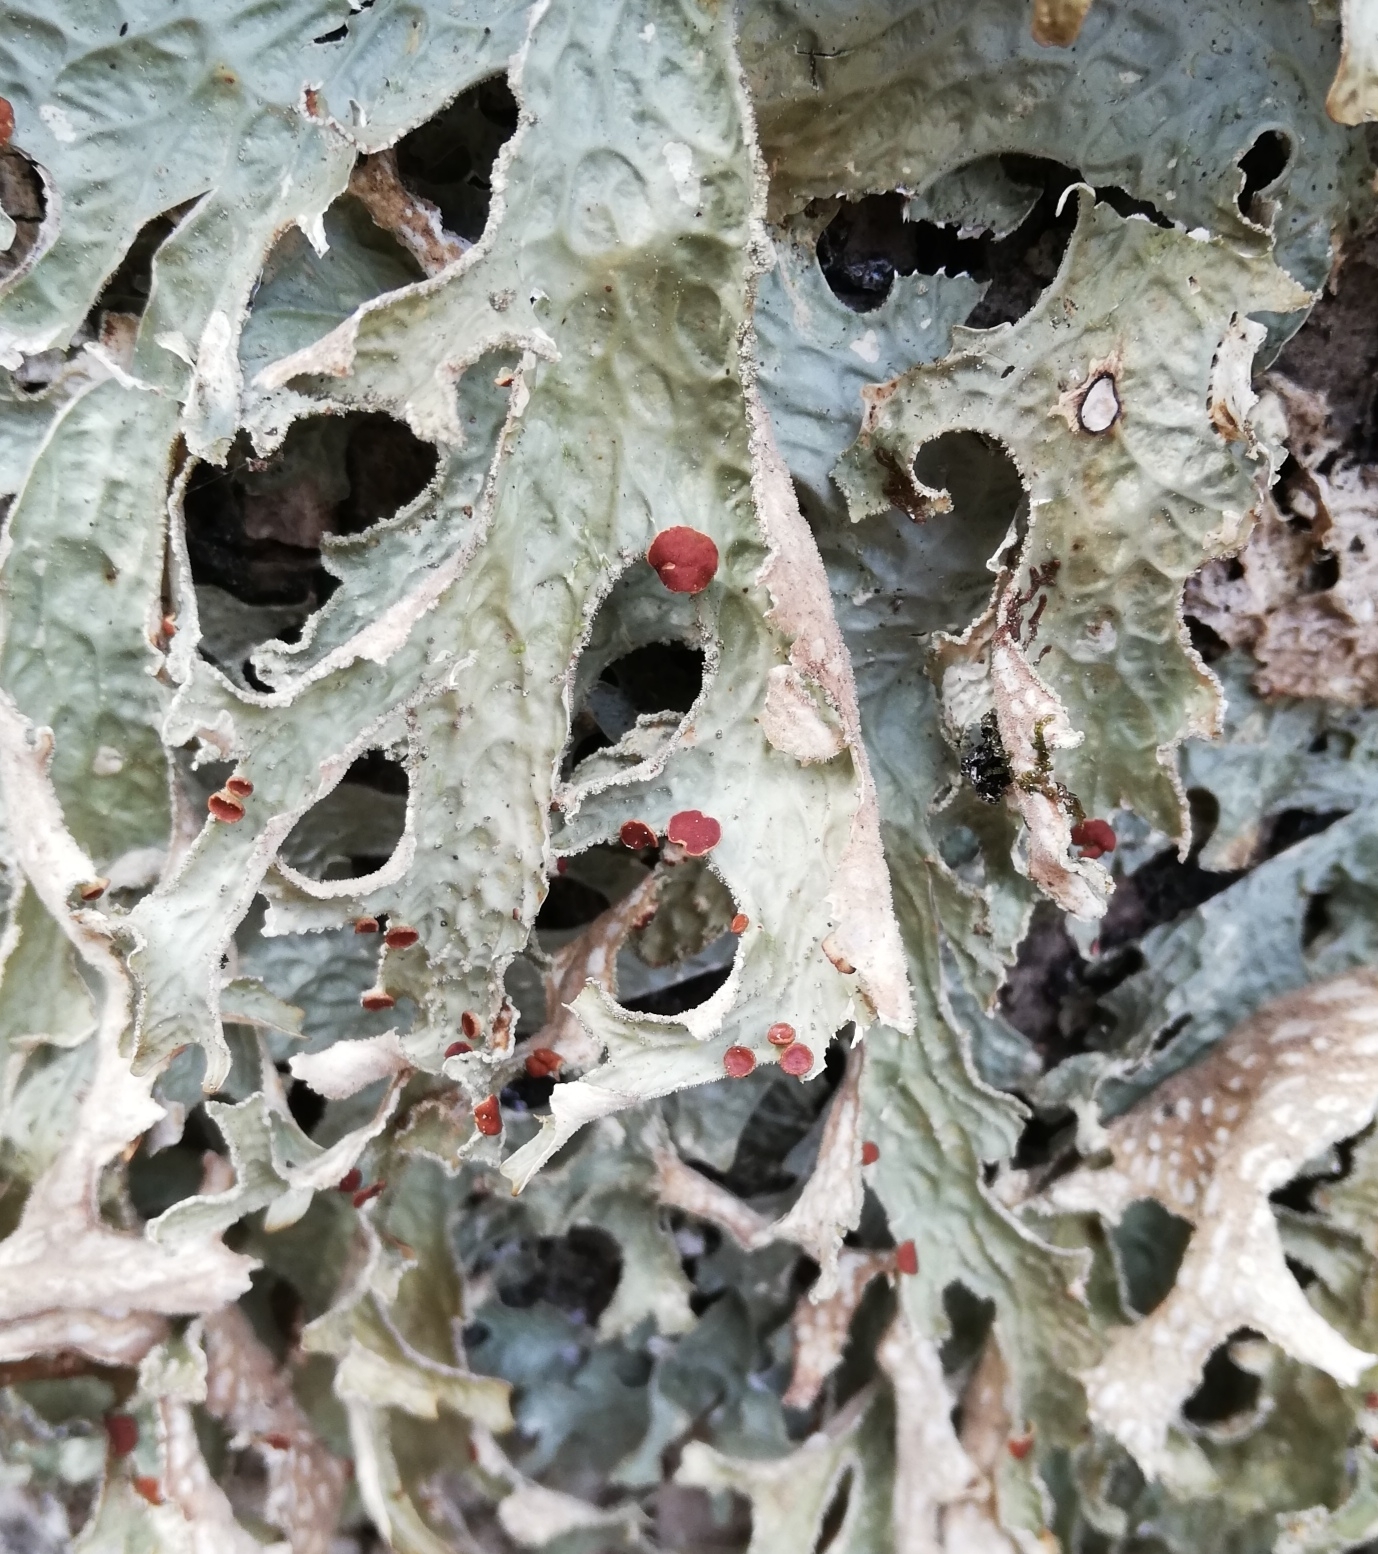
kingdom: Fungi
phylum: Ascomycota
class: Lecanoromycetes
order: Peltigerales
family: Lobariaceae
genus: Lobaria
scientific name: Lobaria pulmonaria
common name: Lungwort
